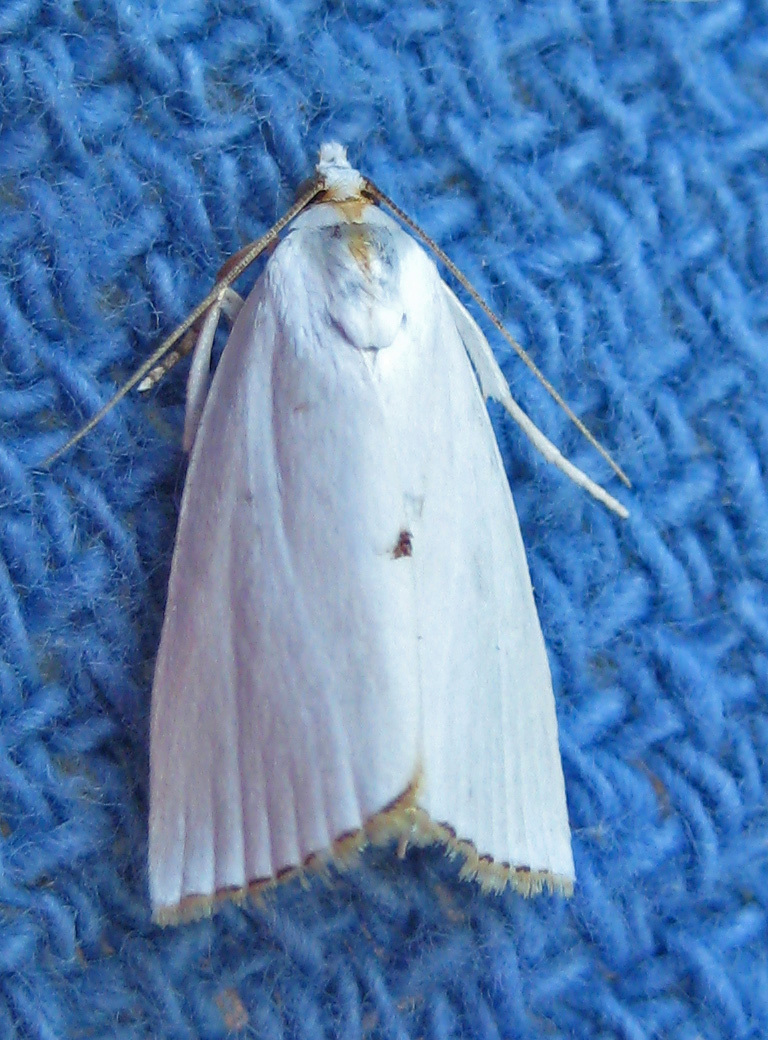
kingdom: Animalia
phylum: Arthropoda
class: Insecta
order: Lepidoptera
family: Crambidae
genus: Argyria
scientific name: Argyria nivalis
